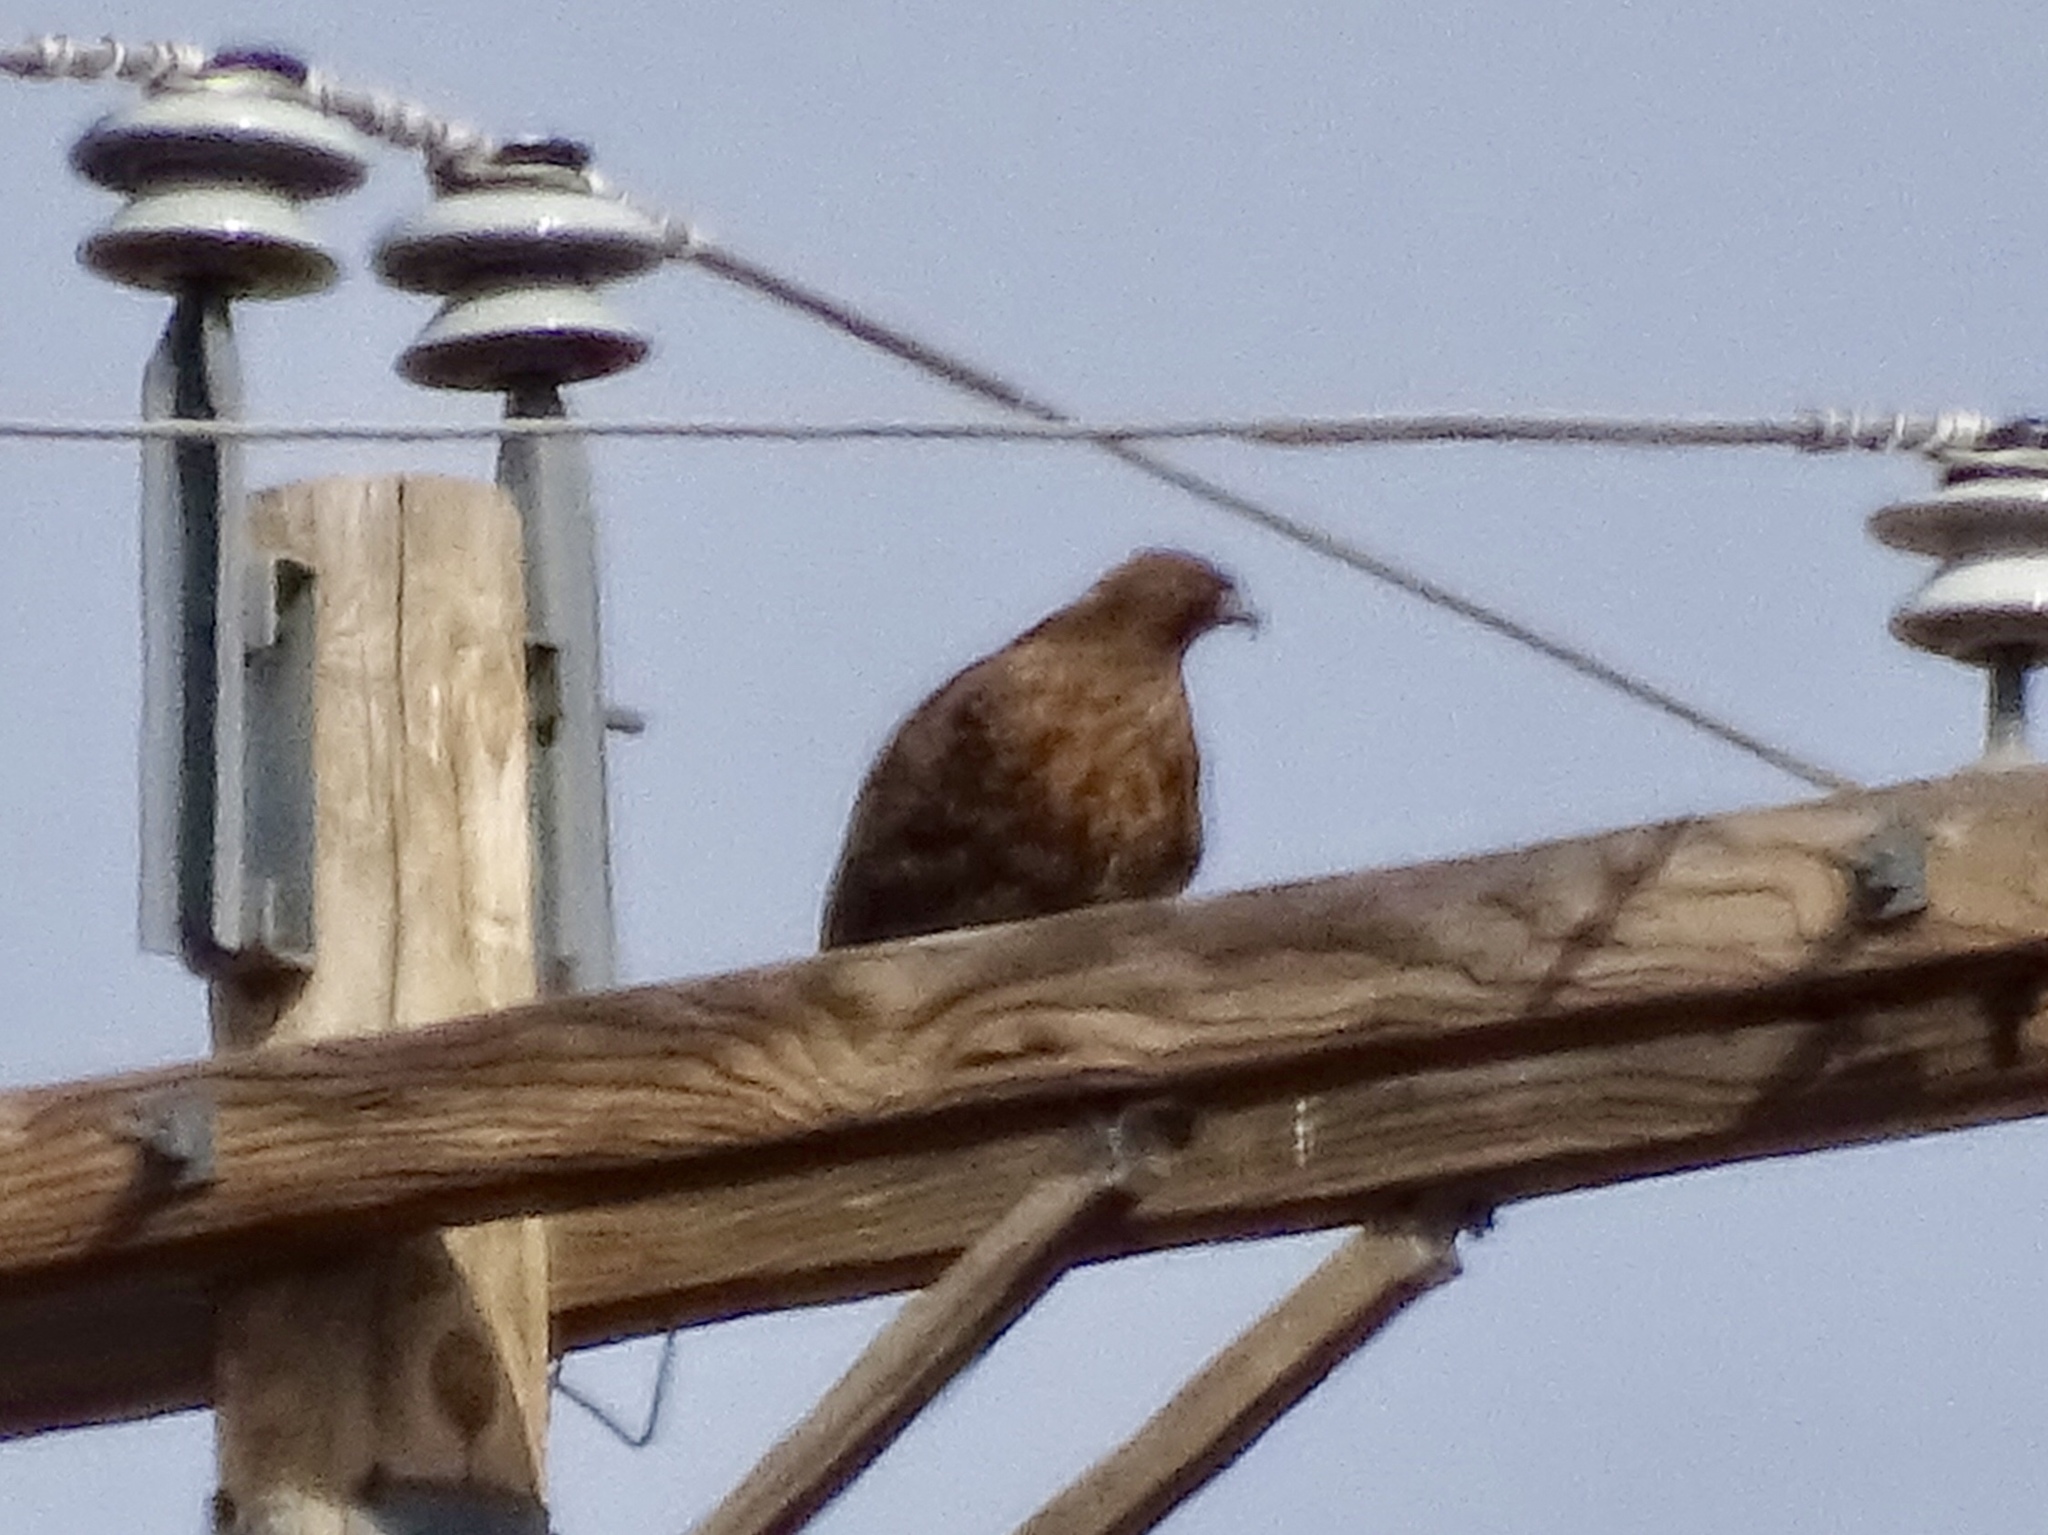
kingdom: Animalia
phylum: Chordata
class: Aves
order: Accipitriformes
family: Accipitridae
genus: Buteo
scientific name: Buteo jamaicensis
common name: Red-tailed hawk
